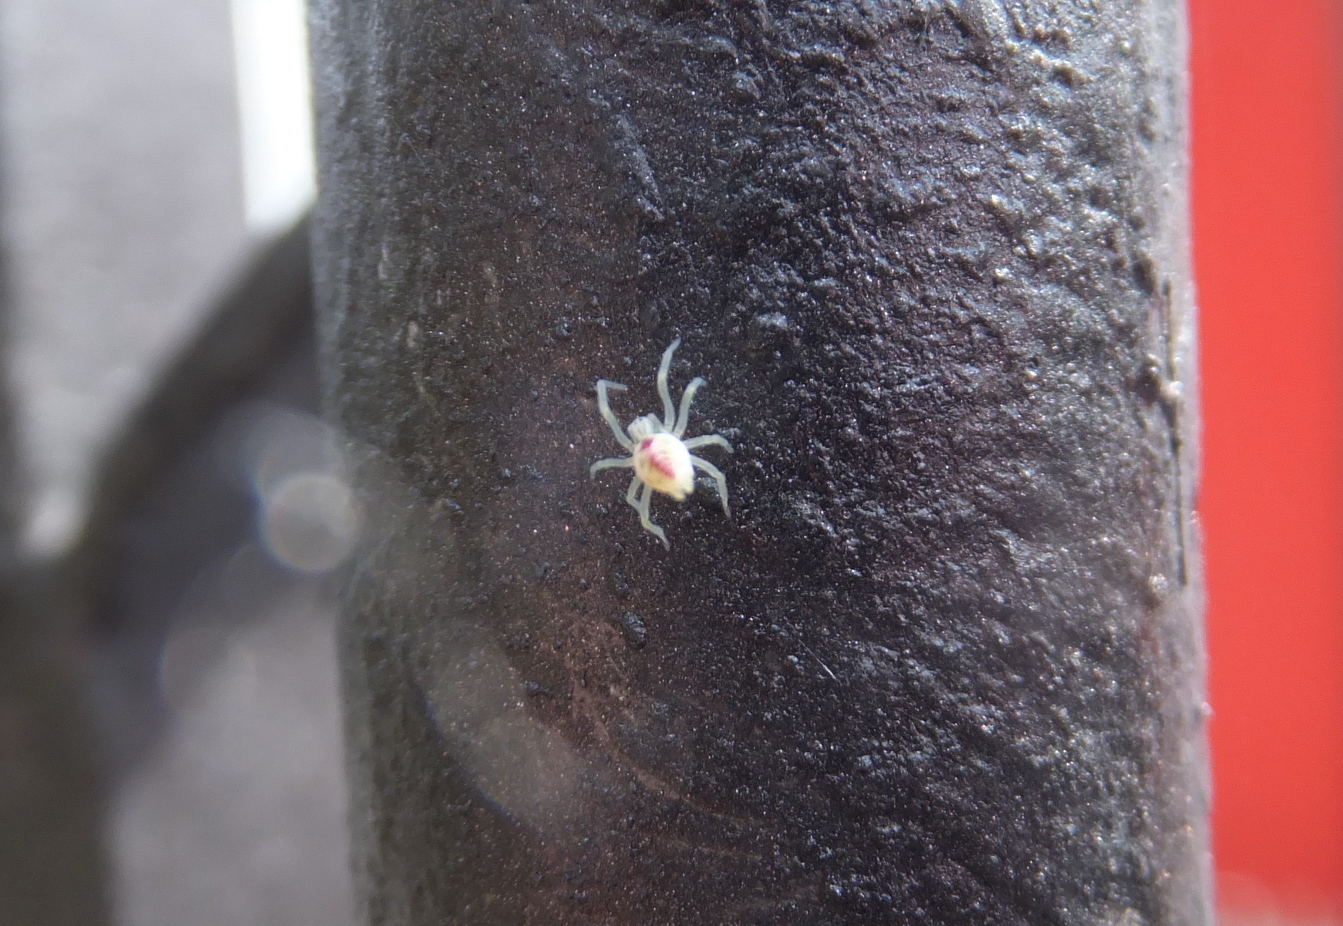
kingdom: Animalia
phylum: Arthropoda
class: Arachnida
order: Araneae
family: Dictynidae
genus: Nigma
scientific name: Nigma puella
